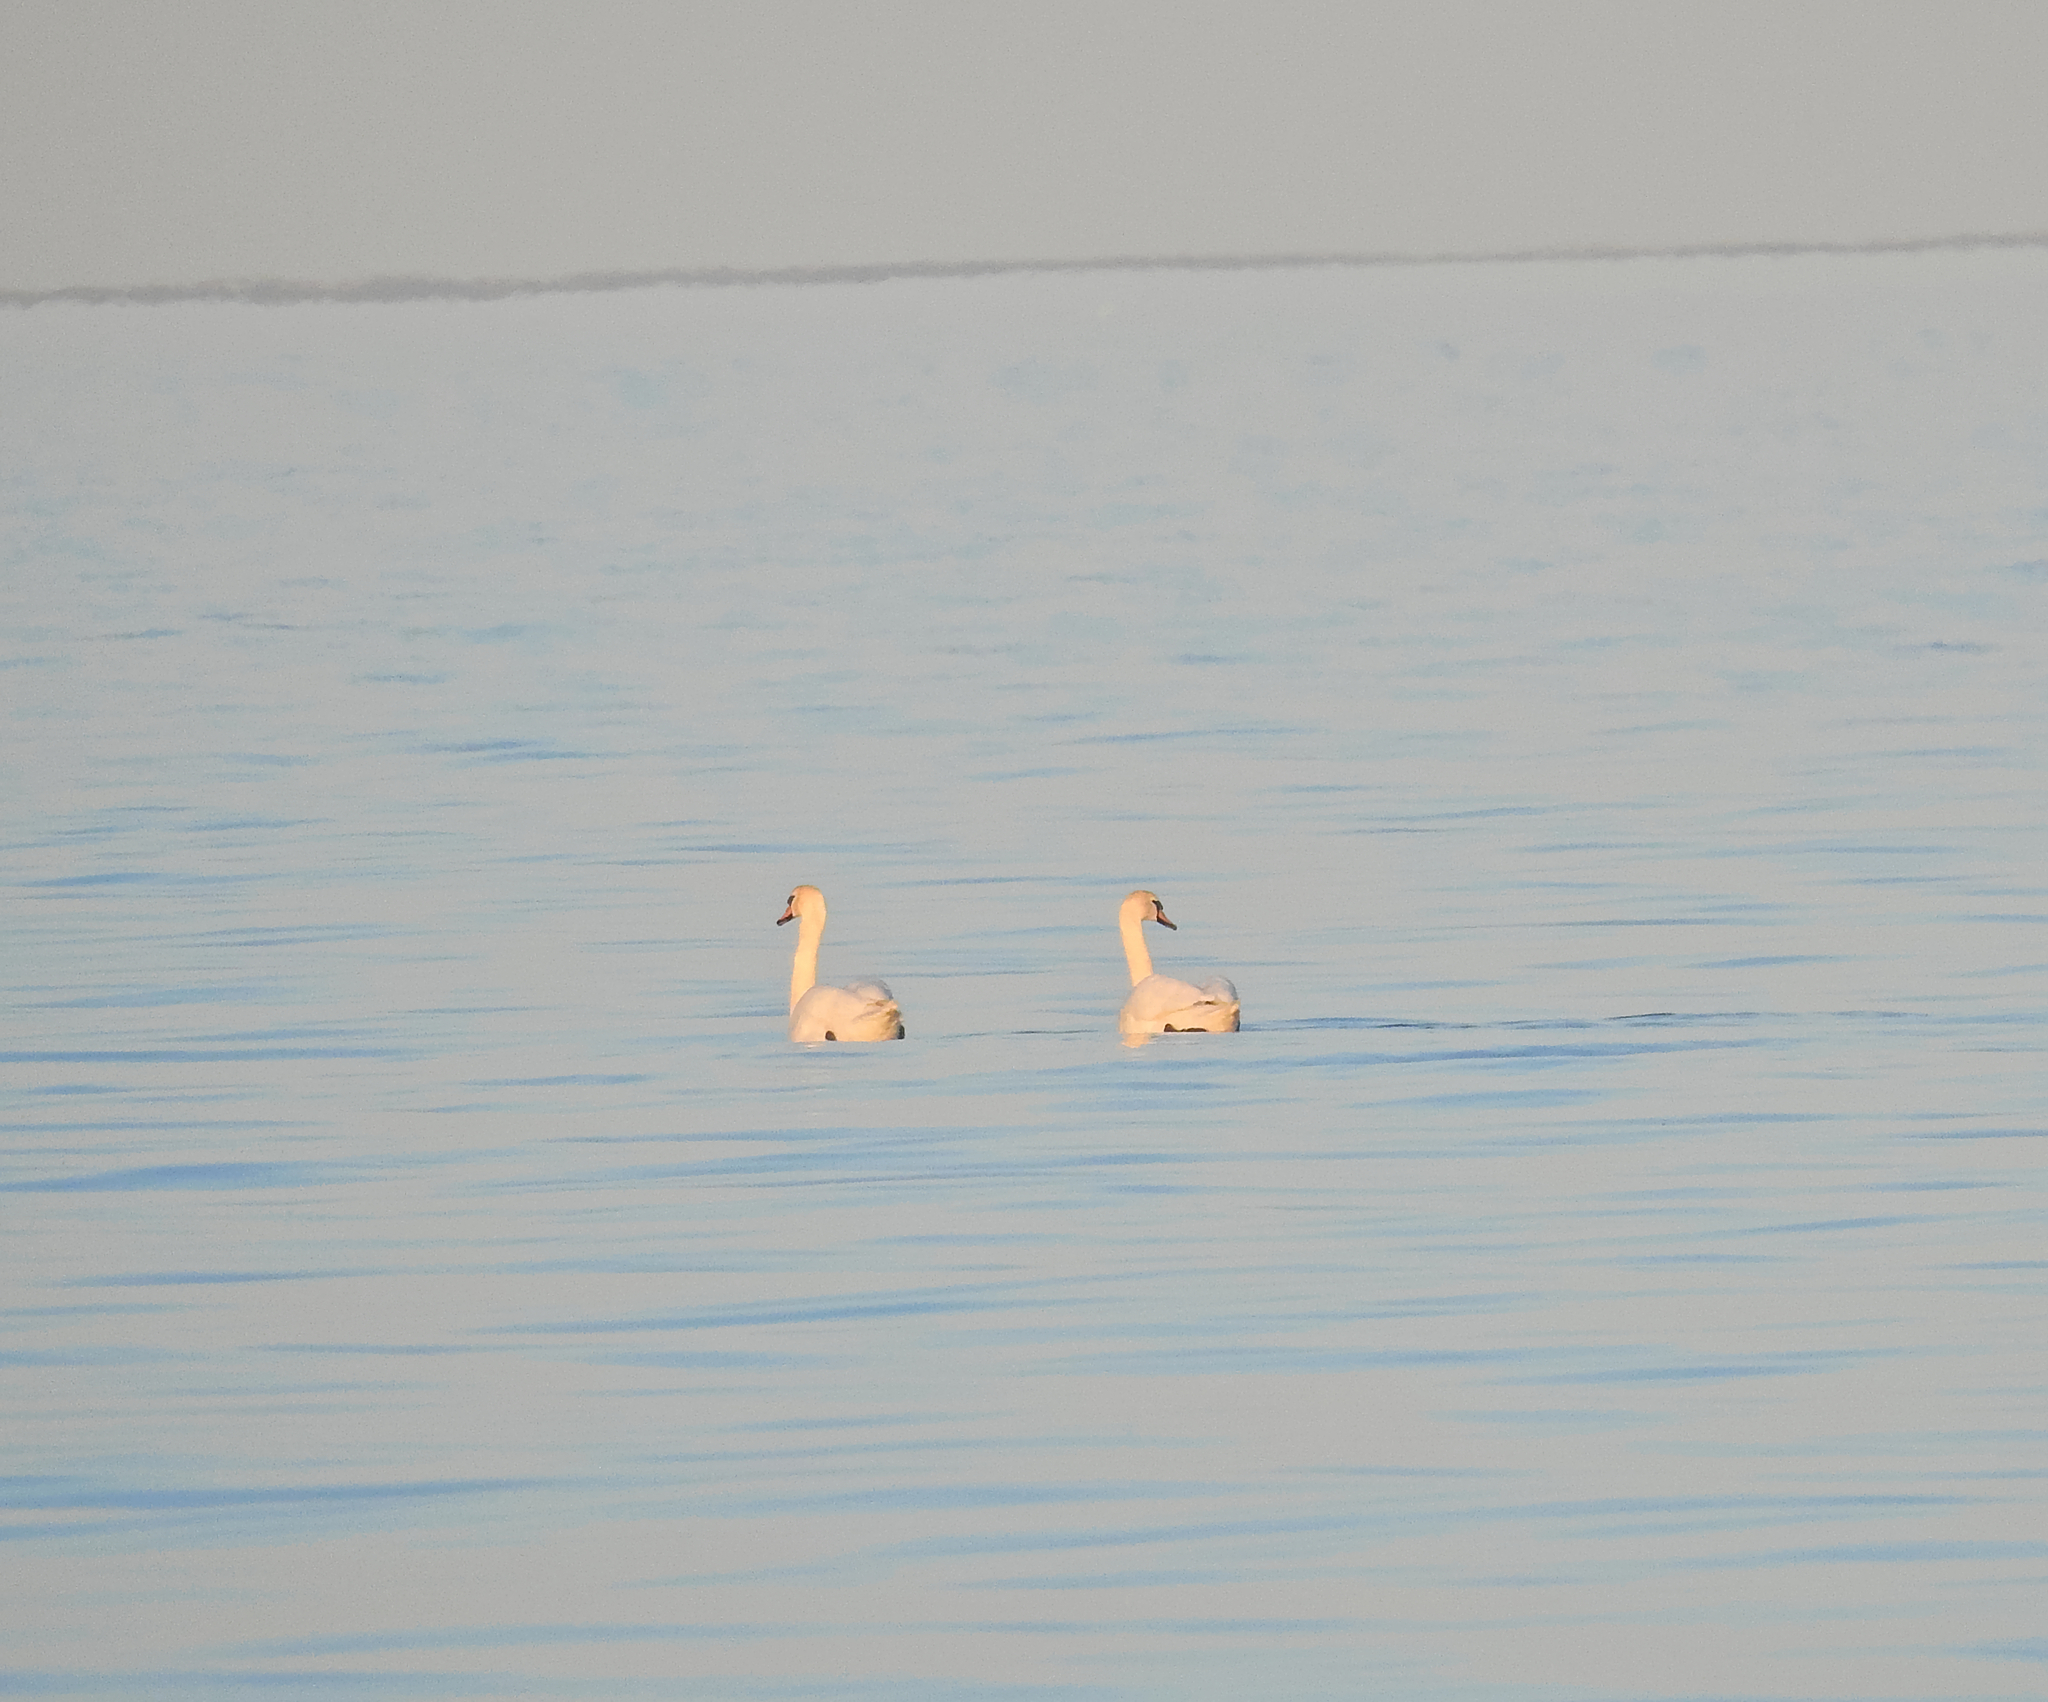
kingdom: Animalia
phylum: Chordata
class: Aves
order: Anseriformes
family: Anatidae
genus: Cygnus
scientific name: Cygnus olor
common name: Mute swan
